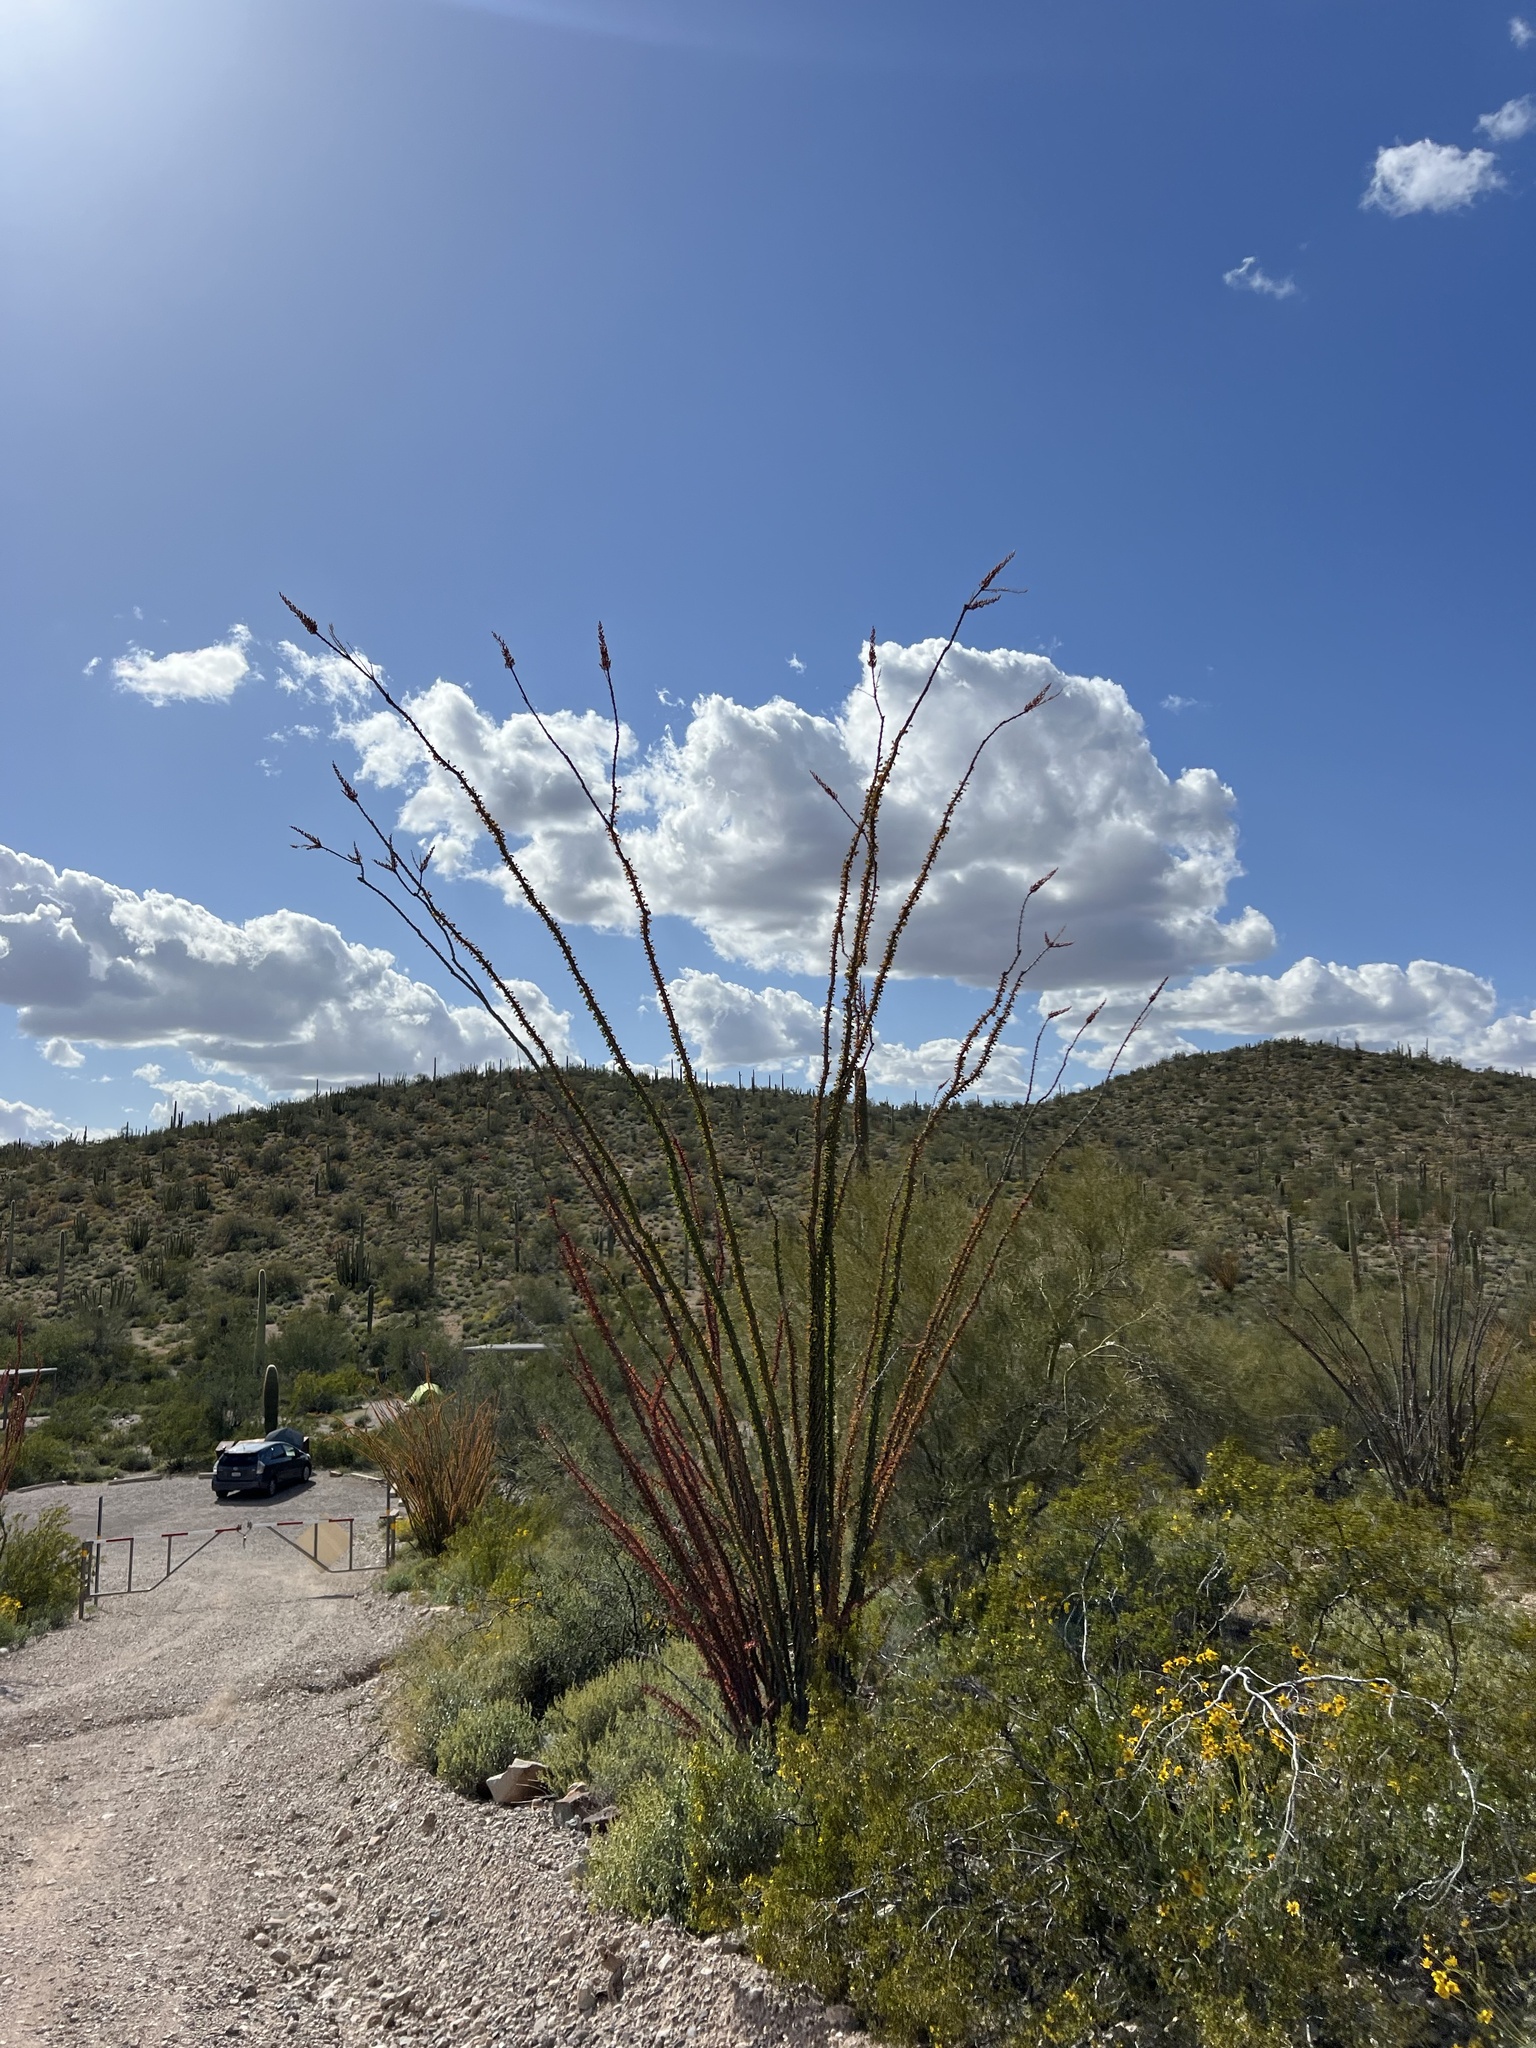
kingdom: Plantae
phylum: Tracheophyta
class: Magnoliopsida
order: Ericales
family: Fouquieriaceae
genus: Fouquieria
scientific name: Fouquieria splendens
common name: Vine-cactus
